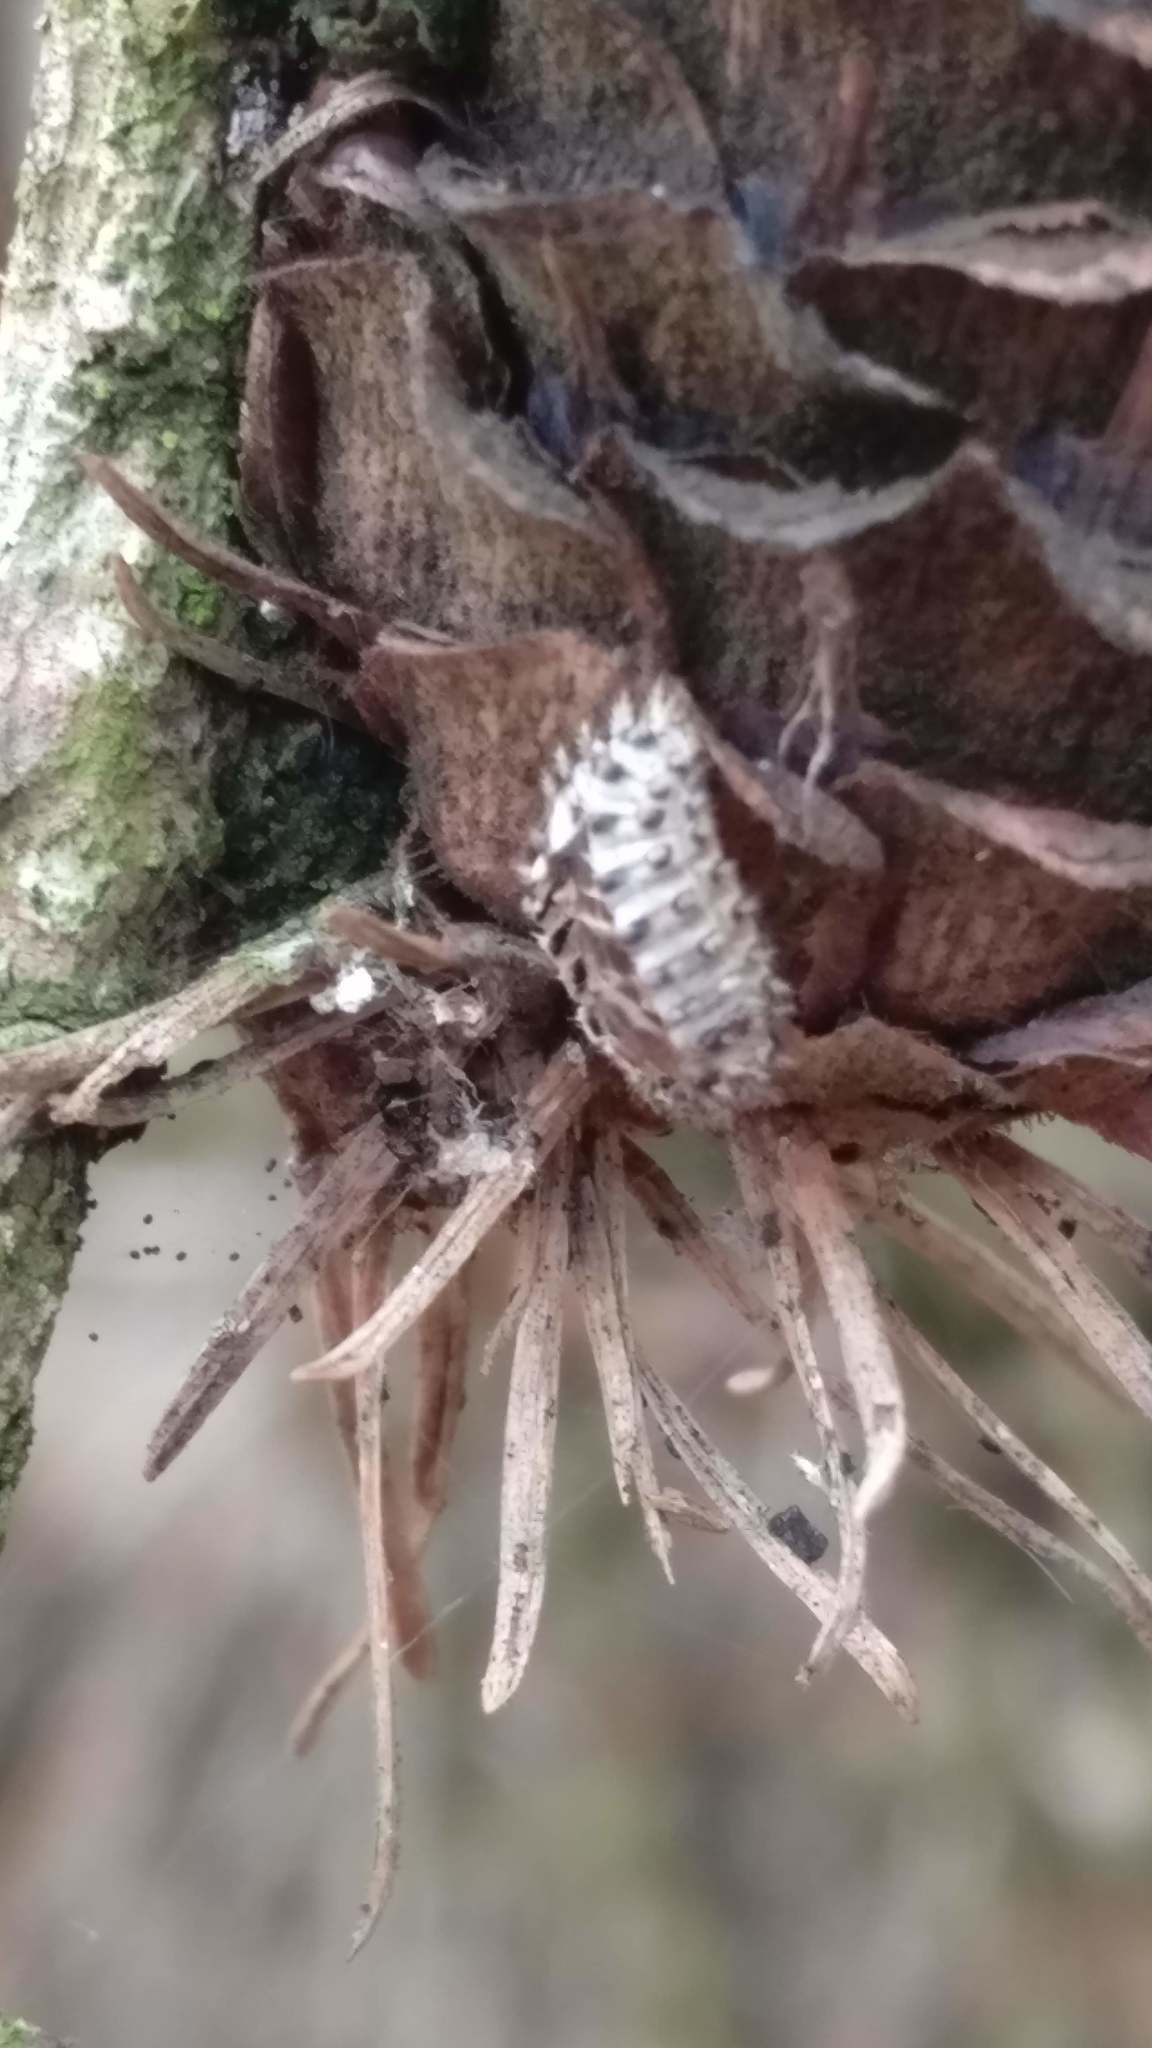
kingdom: Animalia
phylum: Arthropoda
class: Insecta
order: Coleoptera
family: Coccinellidae
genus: Brumus
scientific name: Brumus quadripustulatus
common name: Ladybird beetle
